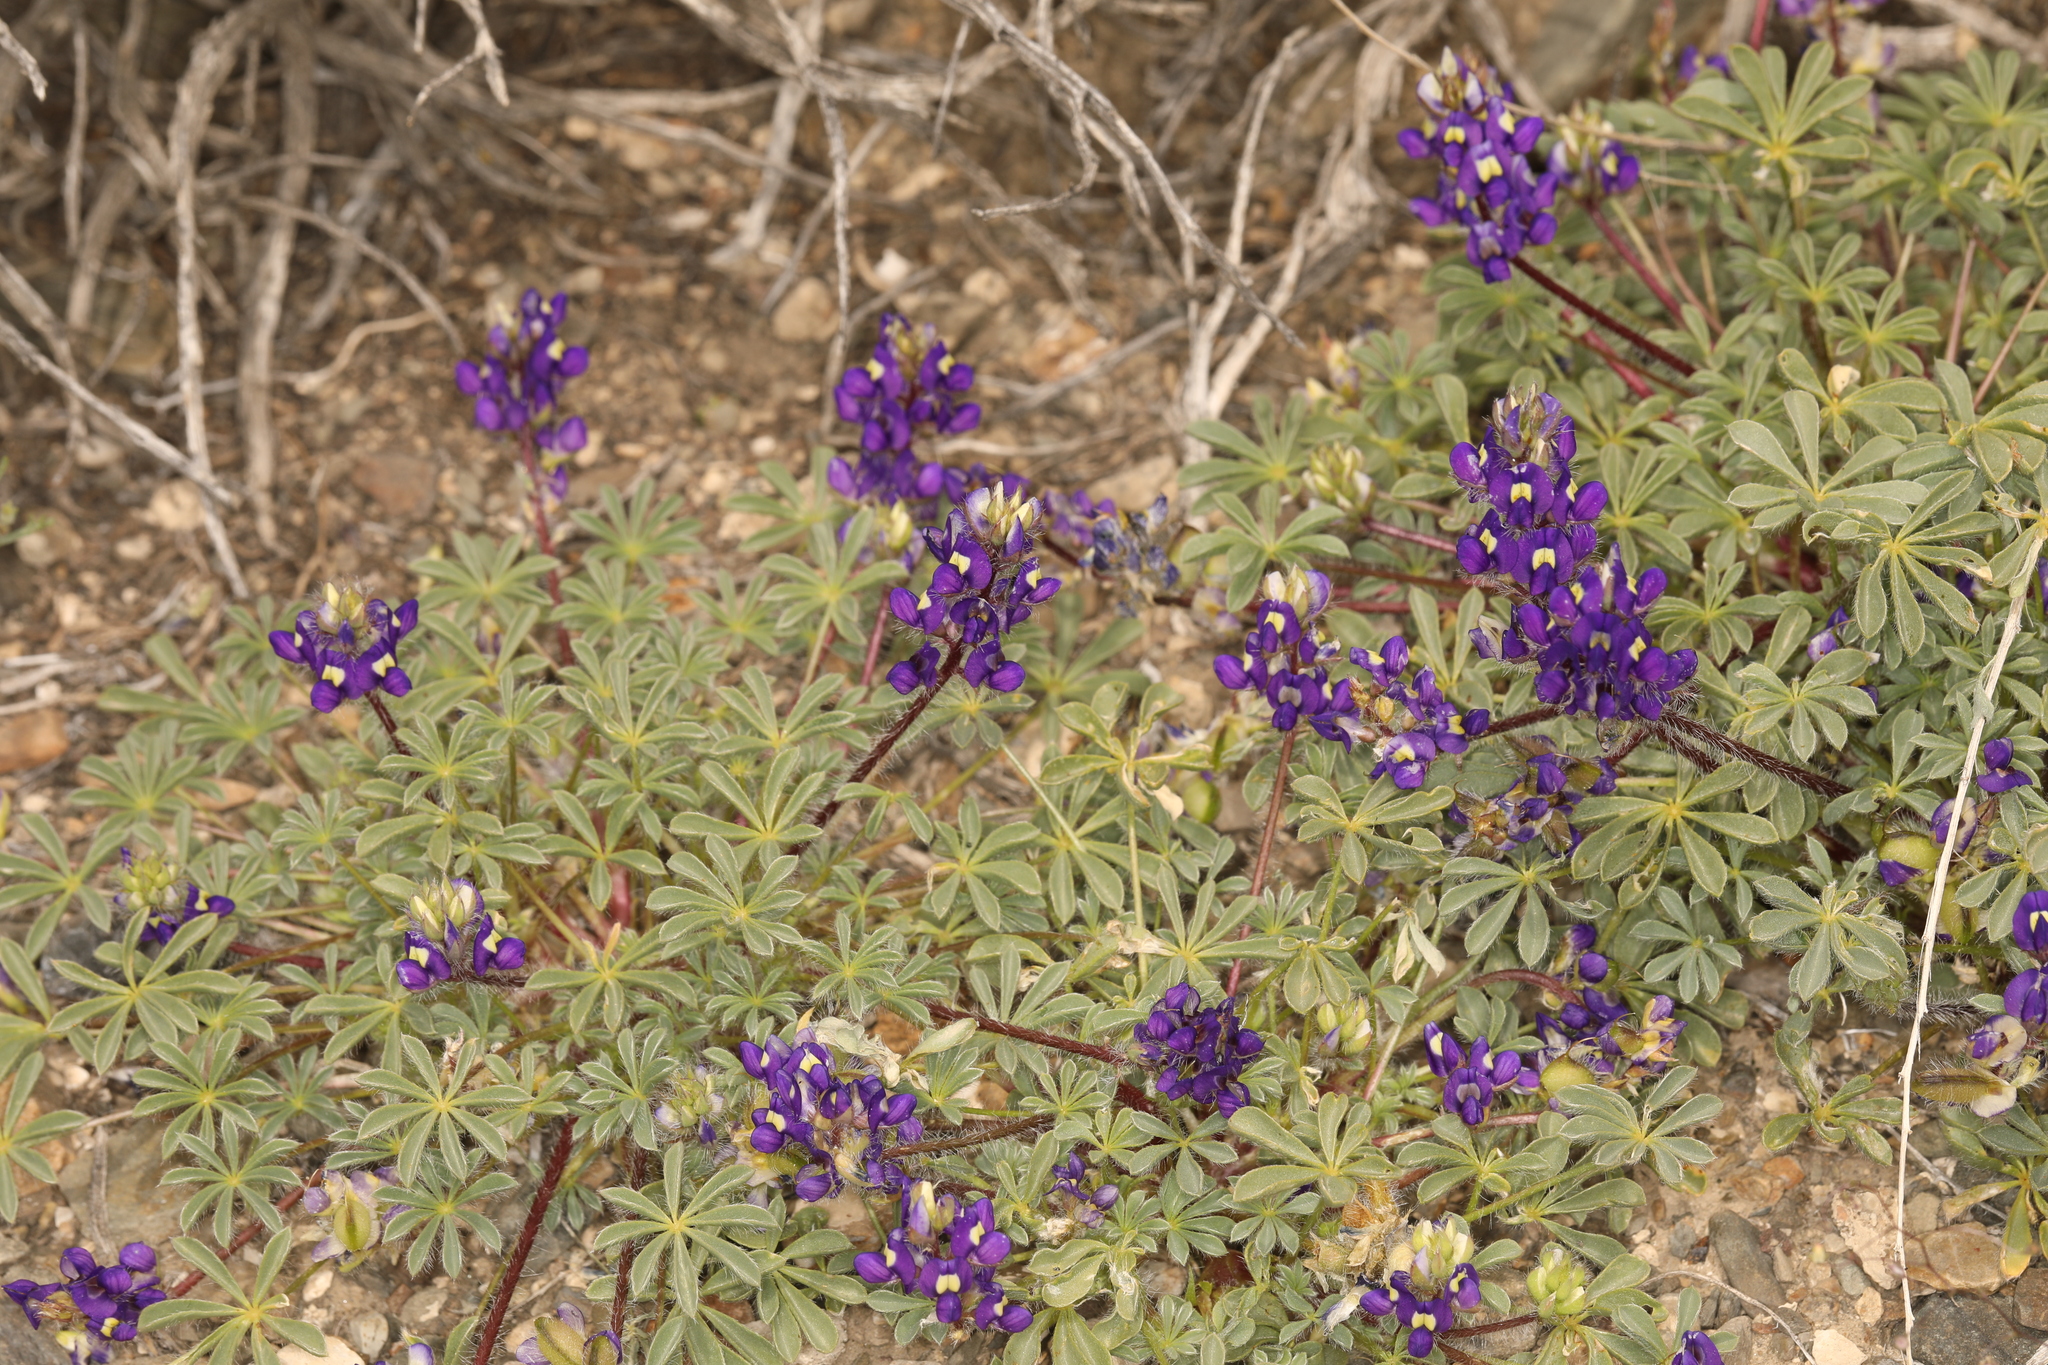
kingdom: Plantae
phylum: Tracheophyta
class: Magnoliopsida
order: Fabales
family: Fabaceae
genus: Lupinus
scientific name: Lupinus flavoculatus
